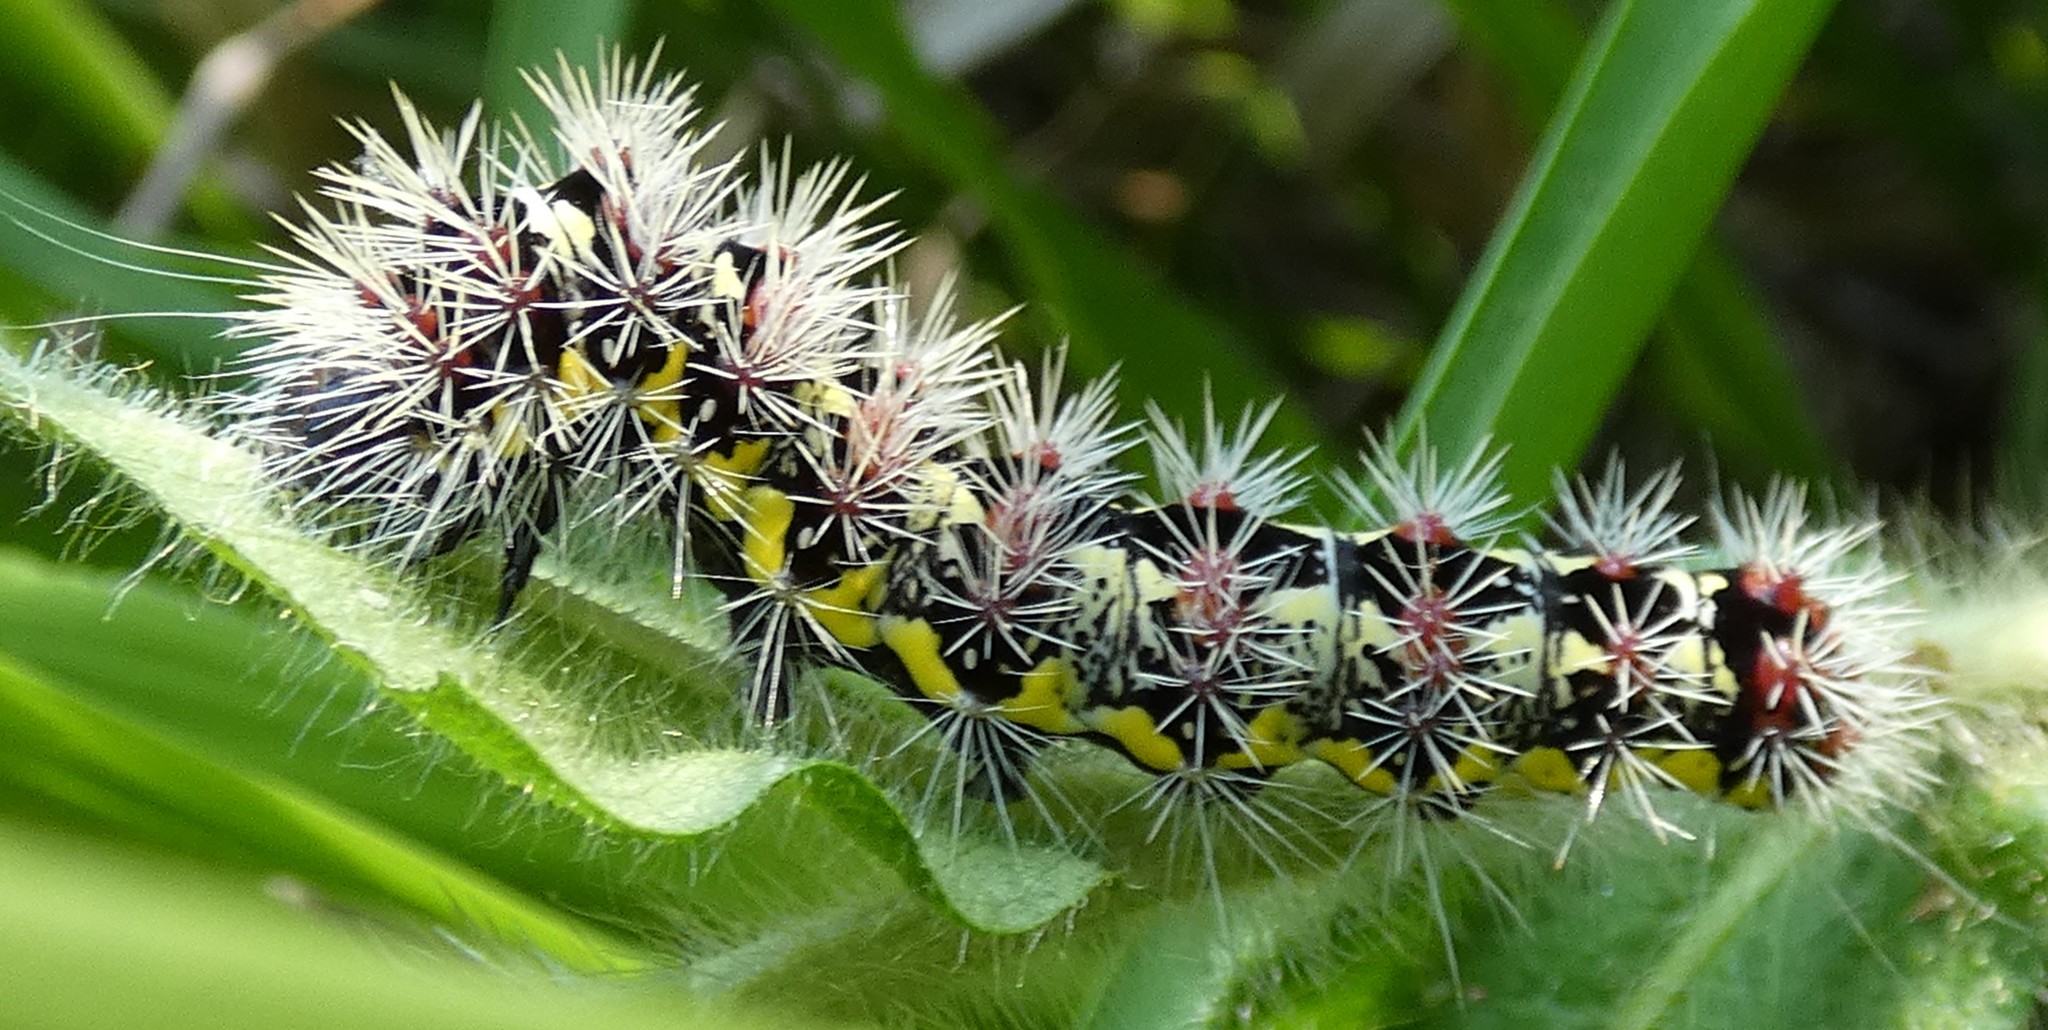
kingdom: Animalia
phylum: Arthropoda
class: Insecta
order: Lepidoptera
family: Noctuidae
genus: Acronicta
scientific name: Acronicta oblinita
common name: Smeared dagger
